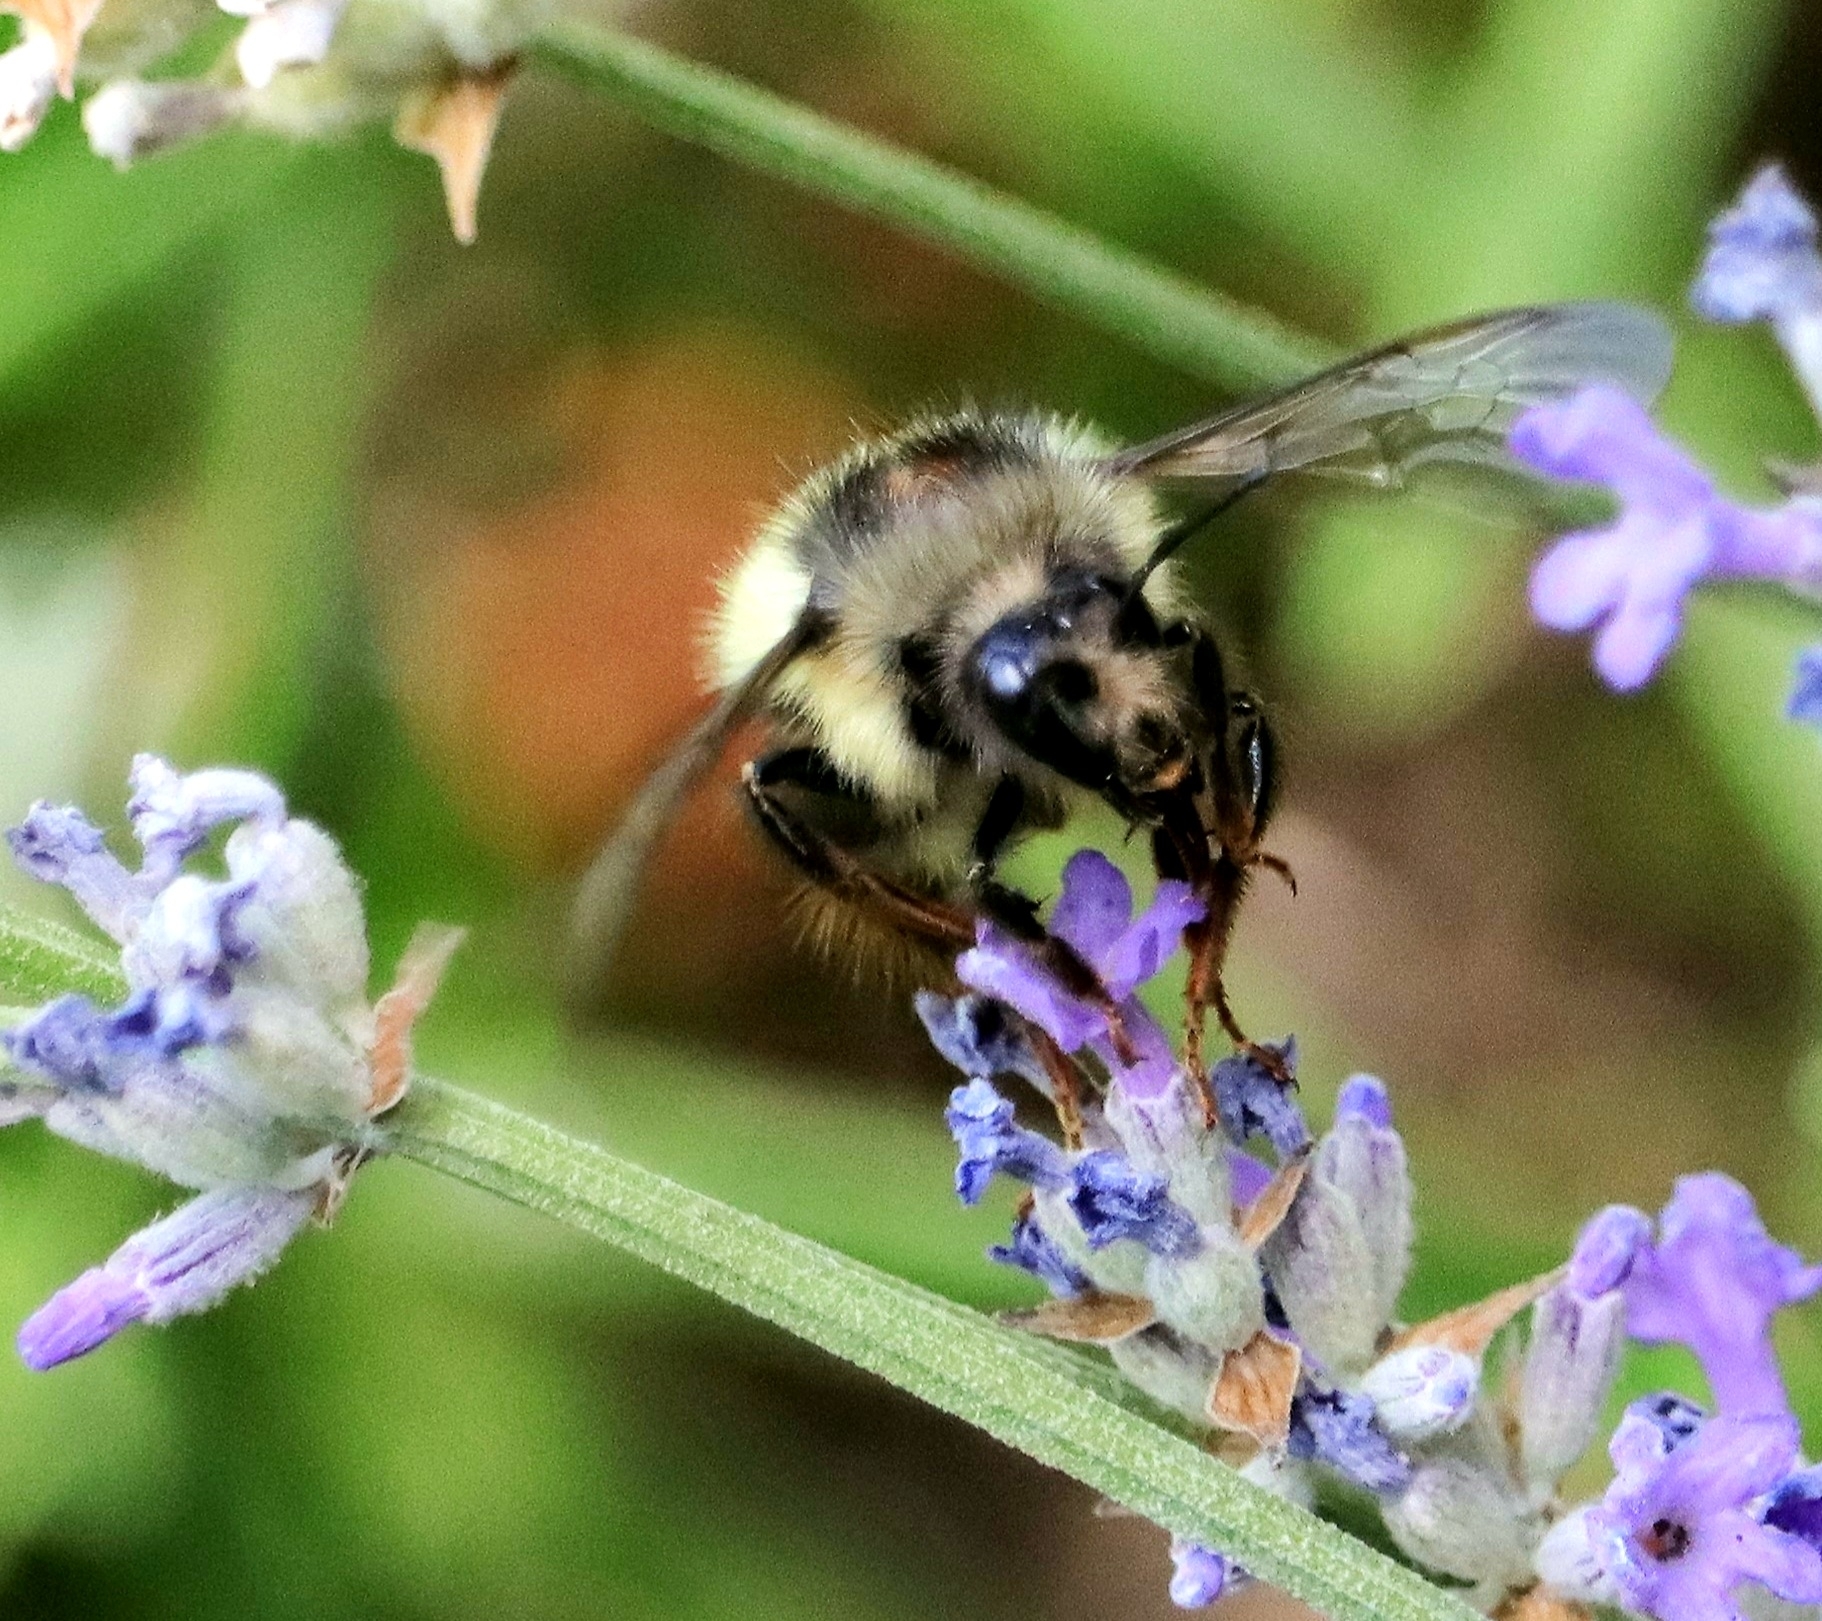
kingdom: Animalia
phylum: Arthropoda
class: Insecta
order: Hymenoptera
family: Apidae
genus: Bombus
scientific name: Bombus mixtus
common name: Fuzzy-horned bumble bee
